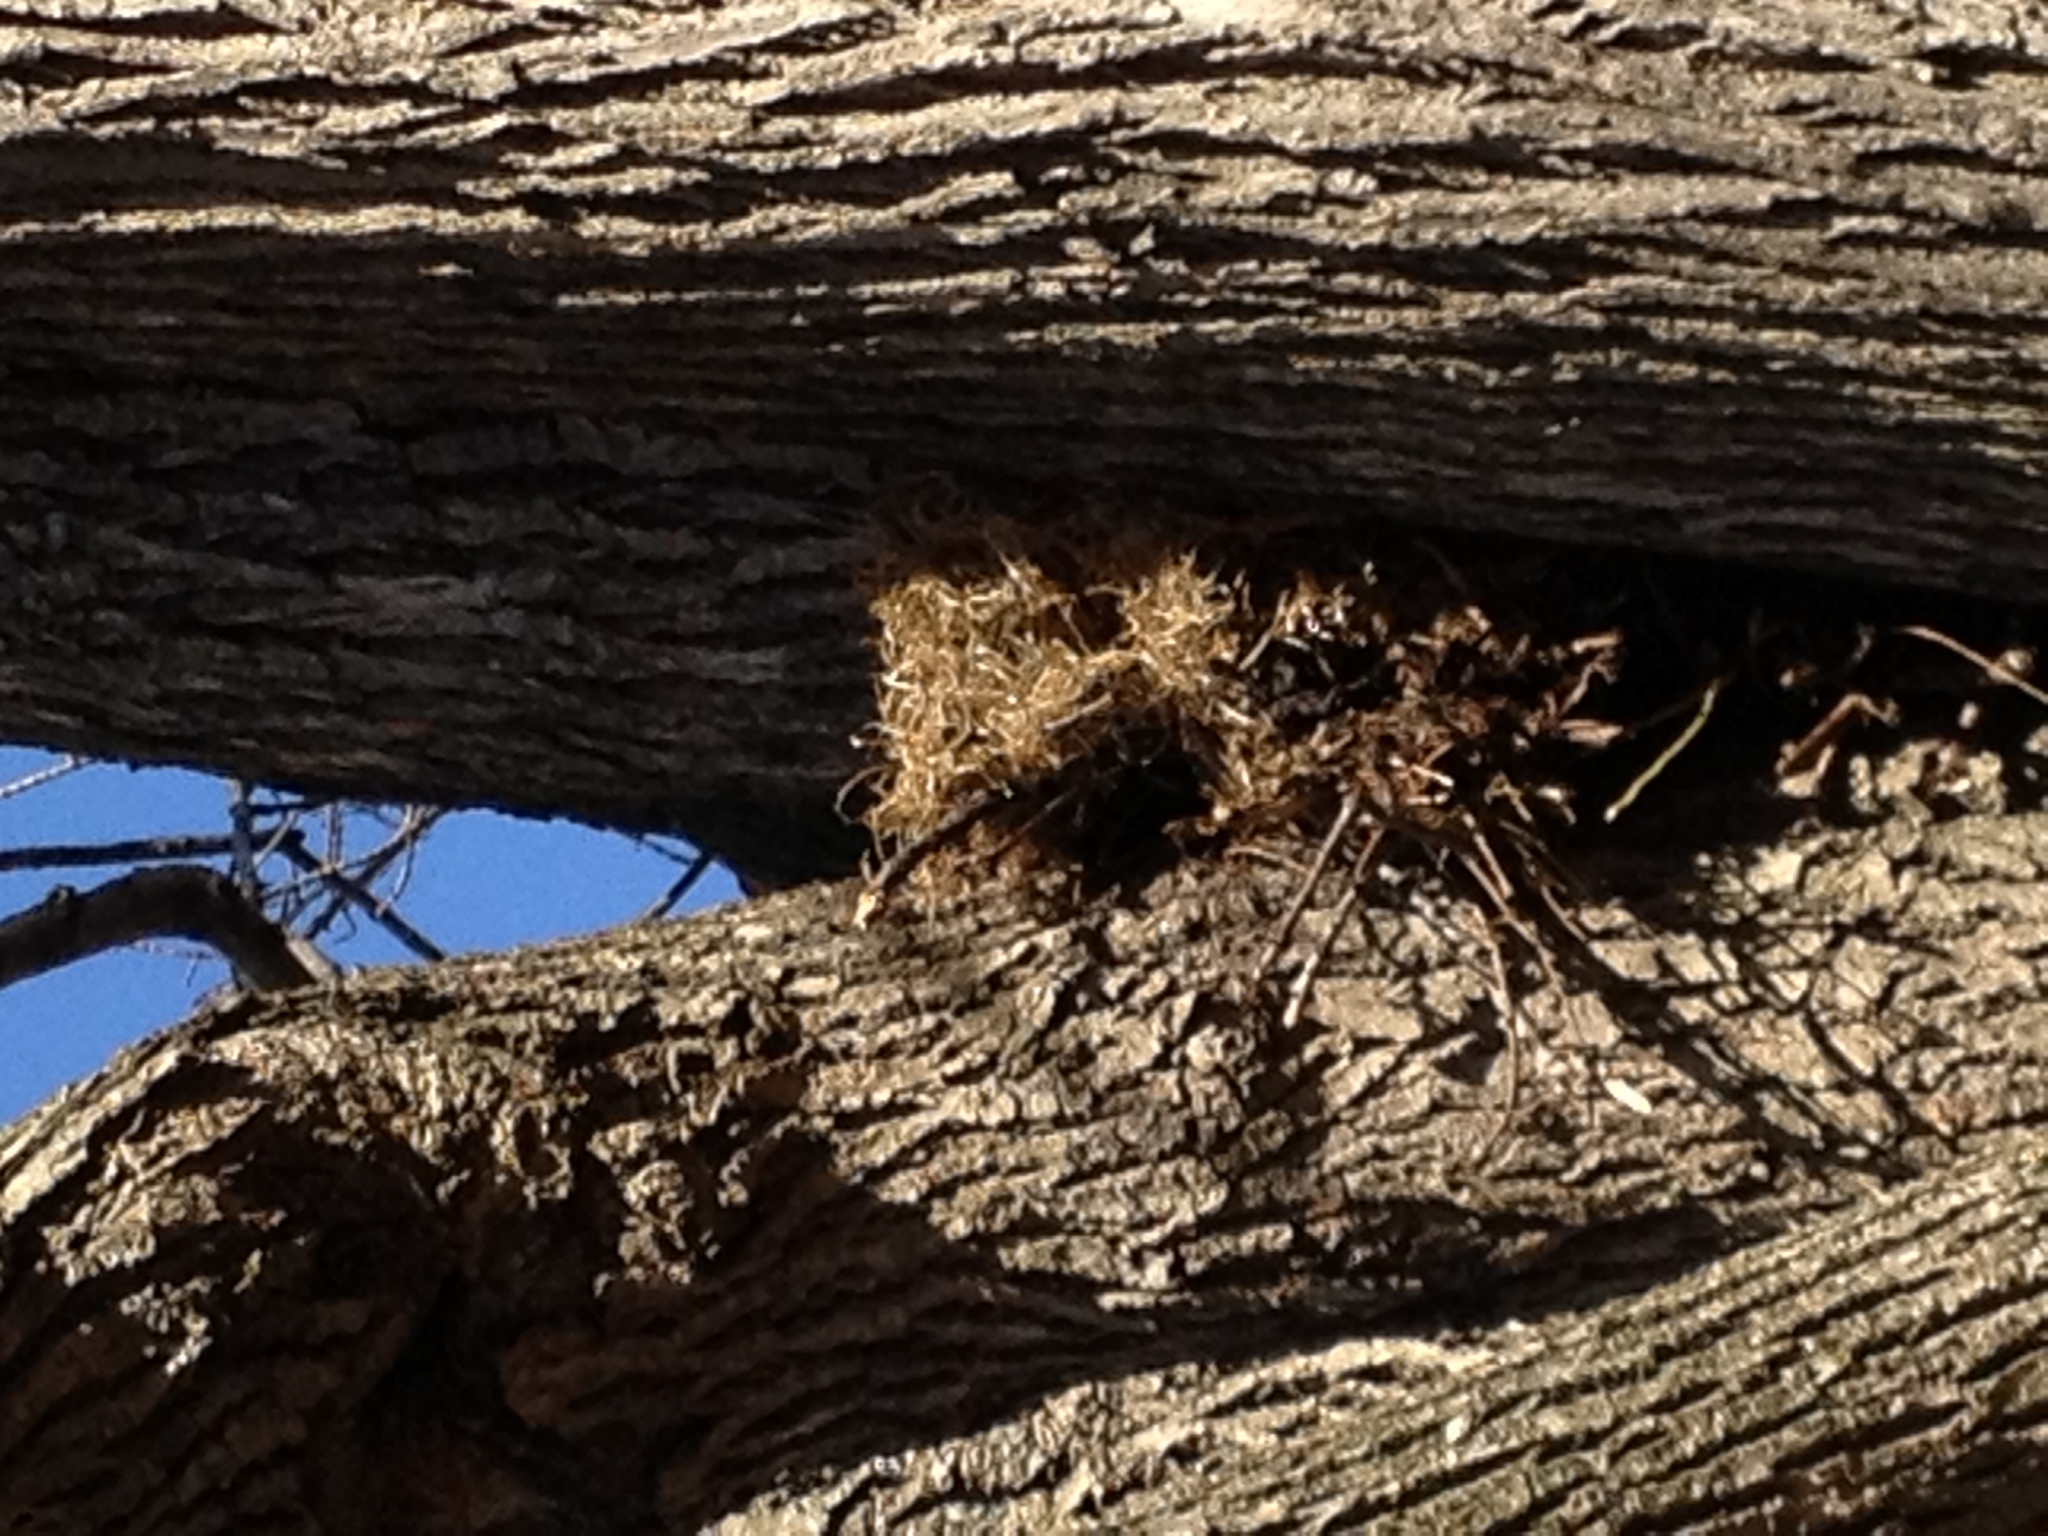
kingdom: Animalia
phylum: Chordata
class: Mammalia
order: Rodentia
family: Sciuridae
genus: Sciurus
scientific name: Sciurus carolinensis
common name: Eastern gray squirrel
